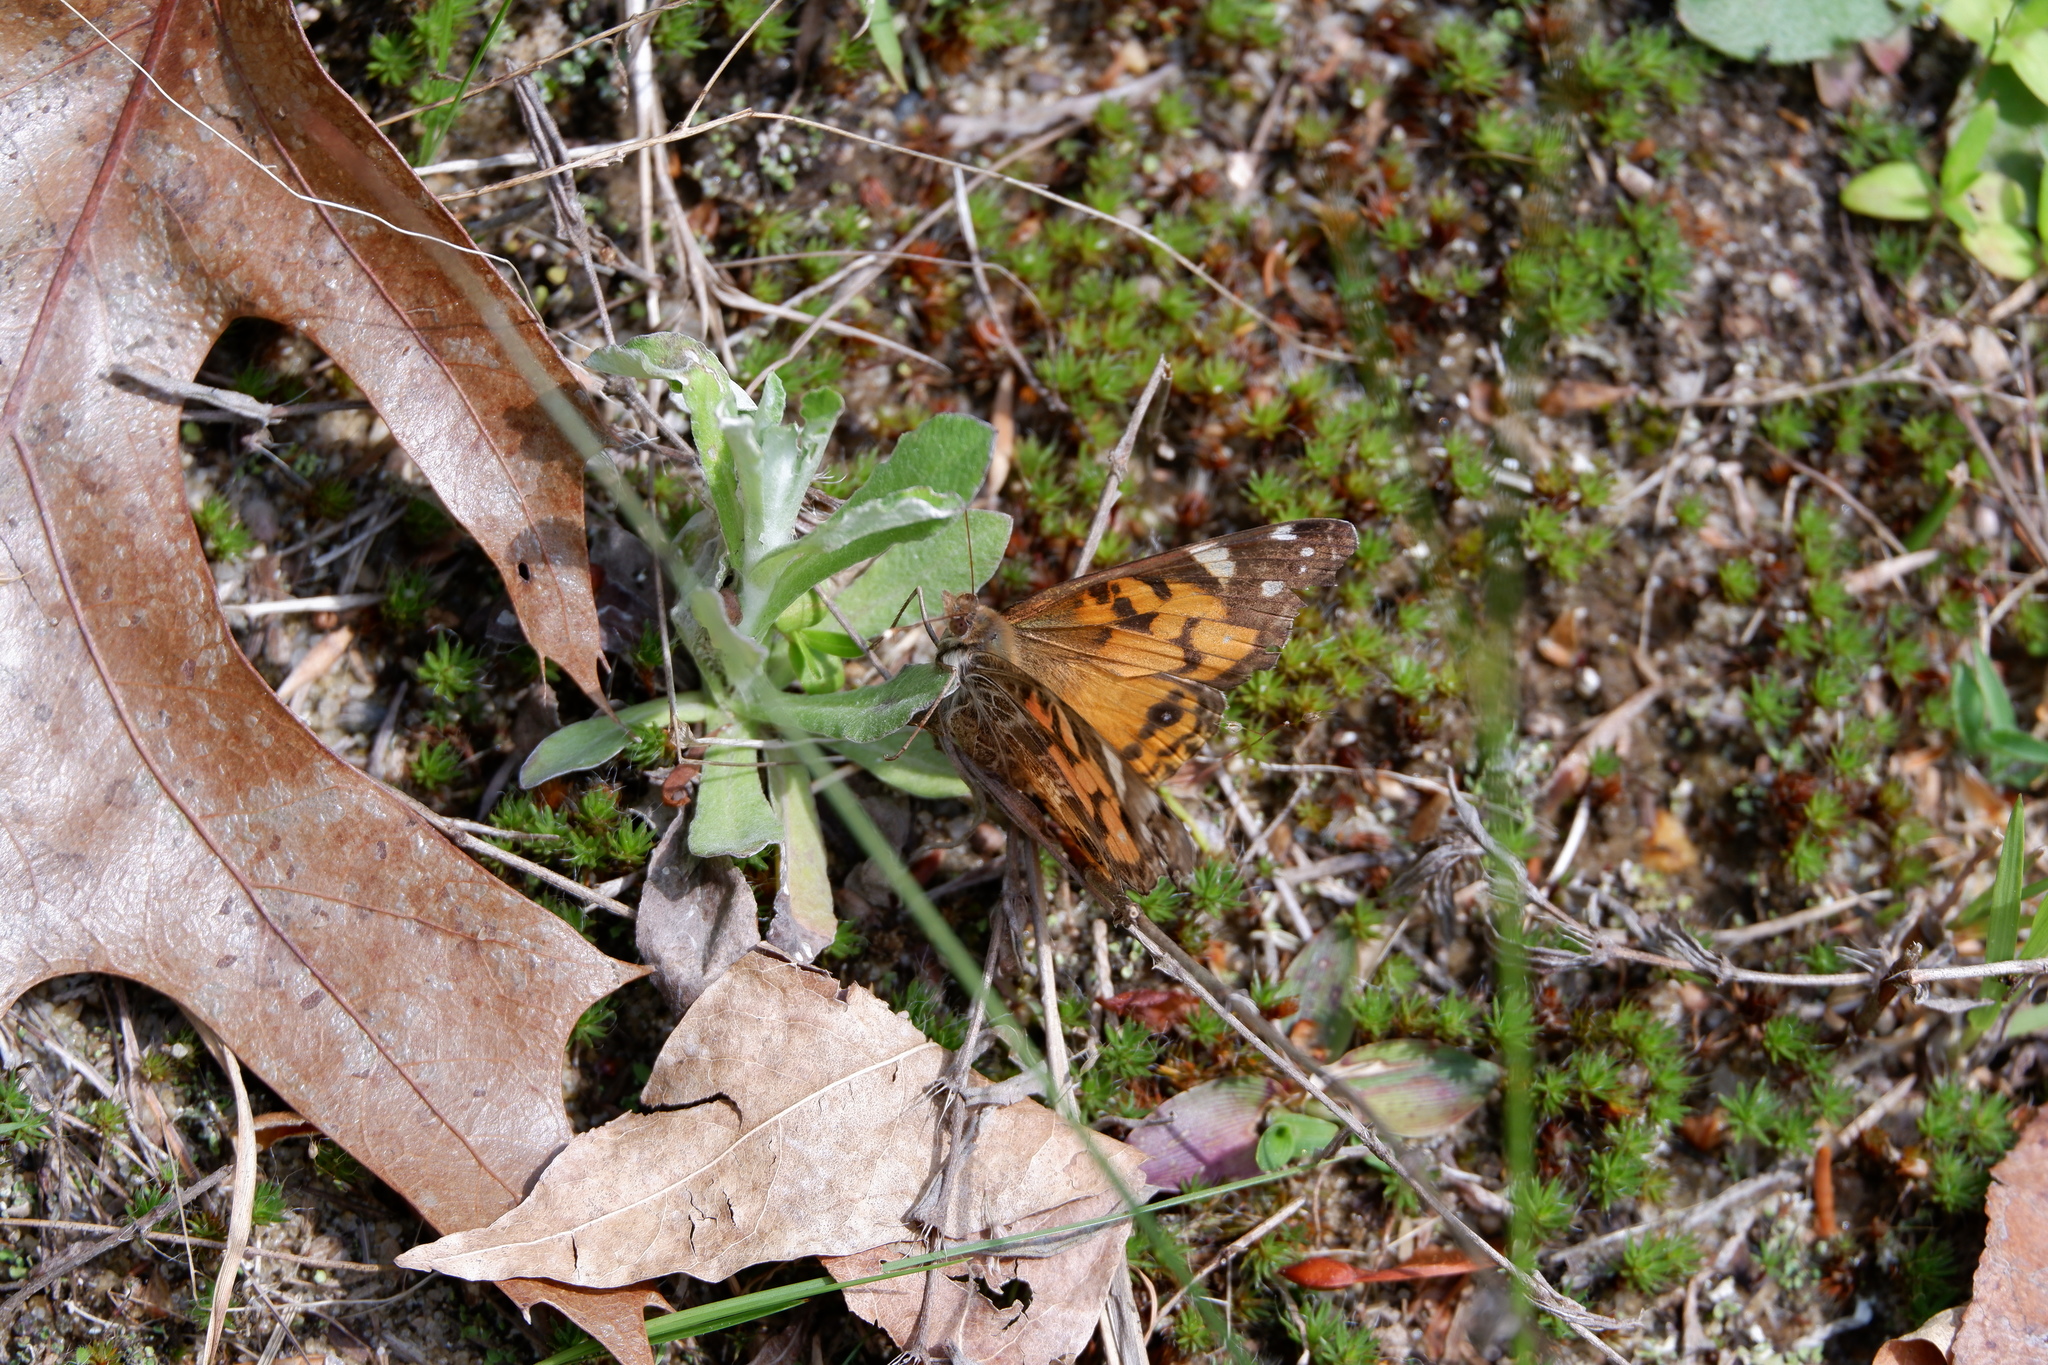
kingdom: Animalia
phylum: Arthropoda
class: Insecta
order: Lepidoptera
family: Nymphalidae
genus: Vanessa
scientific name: Vanessa virginiensis
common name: American lady
